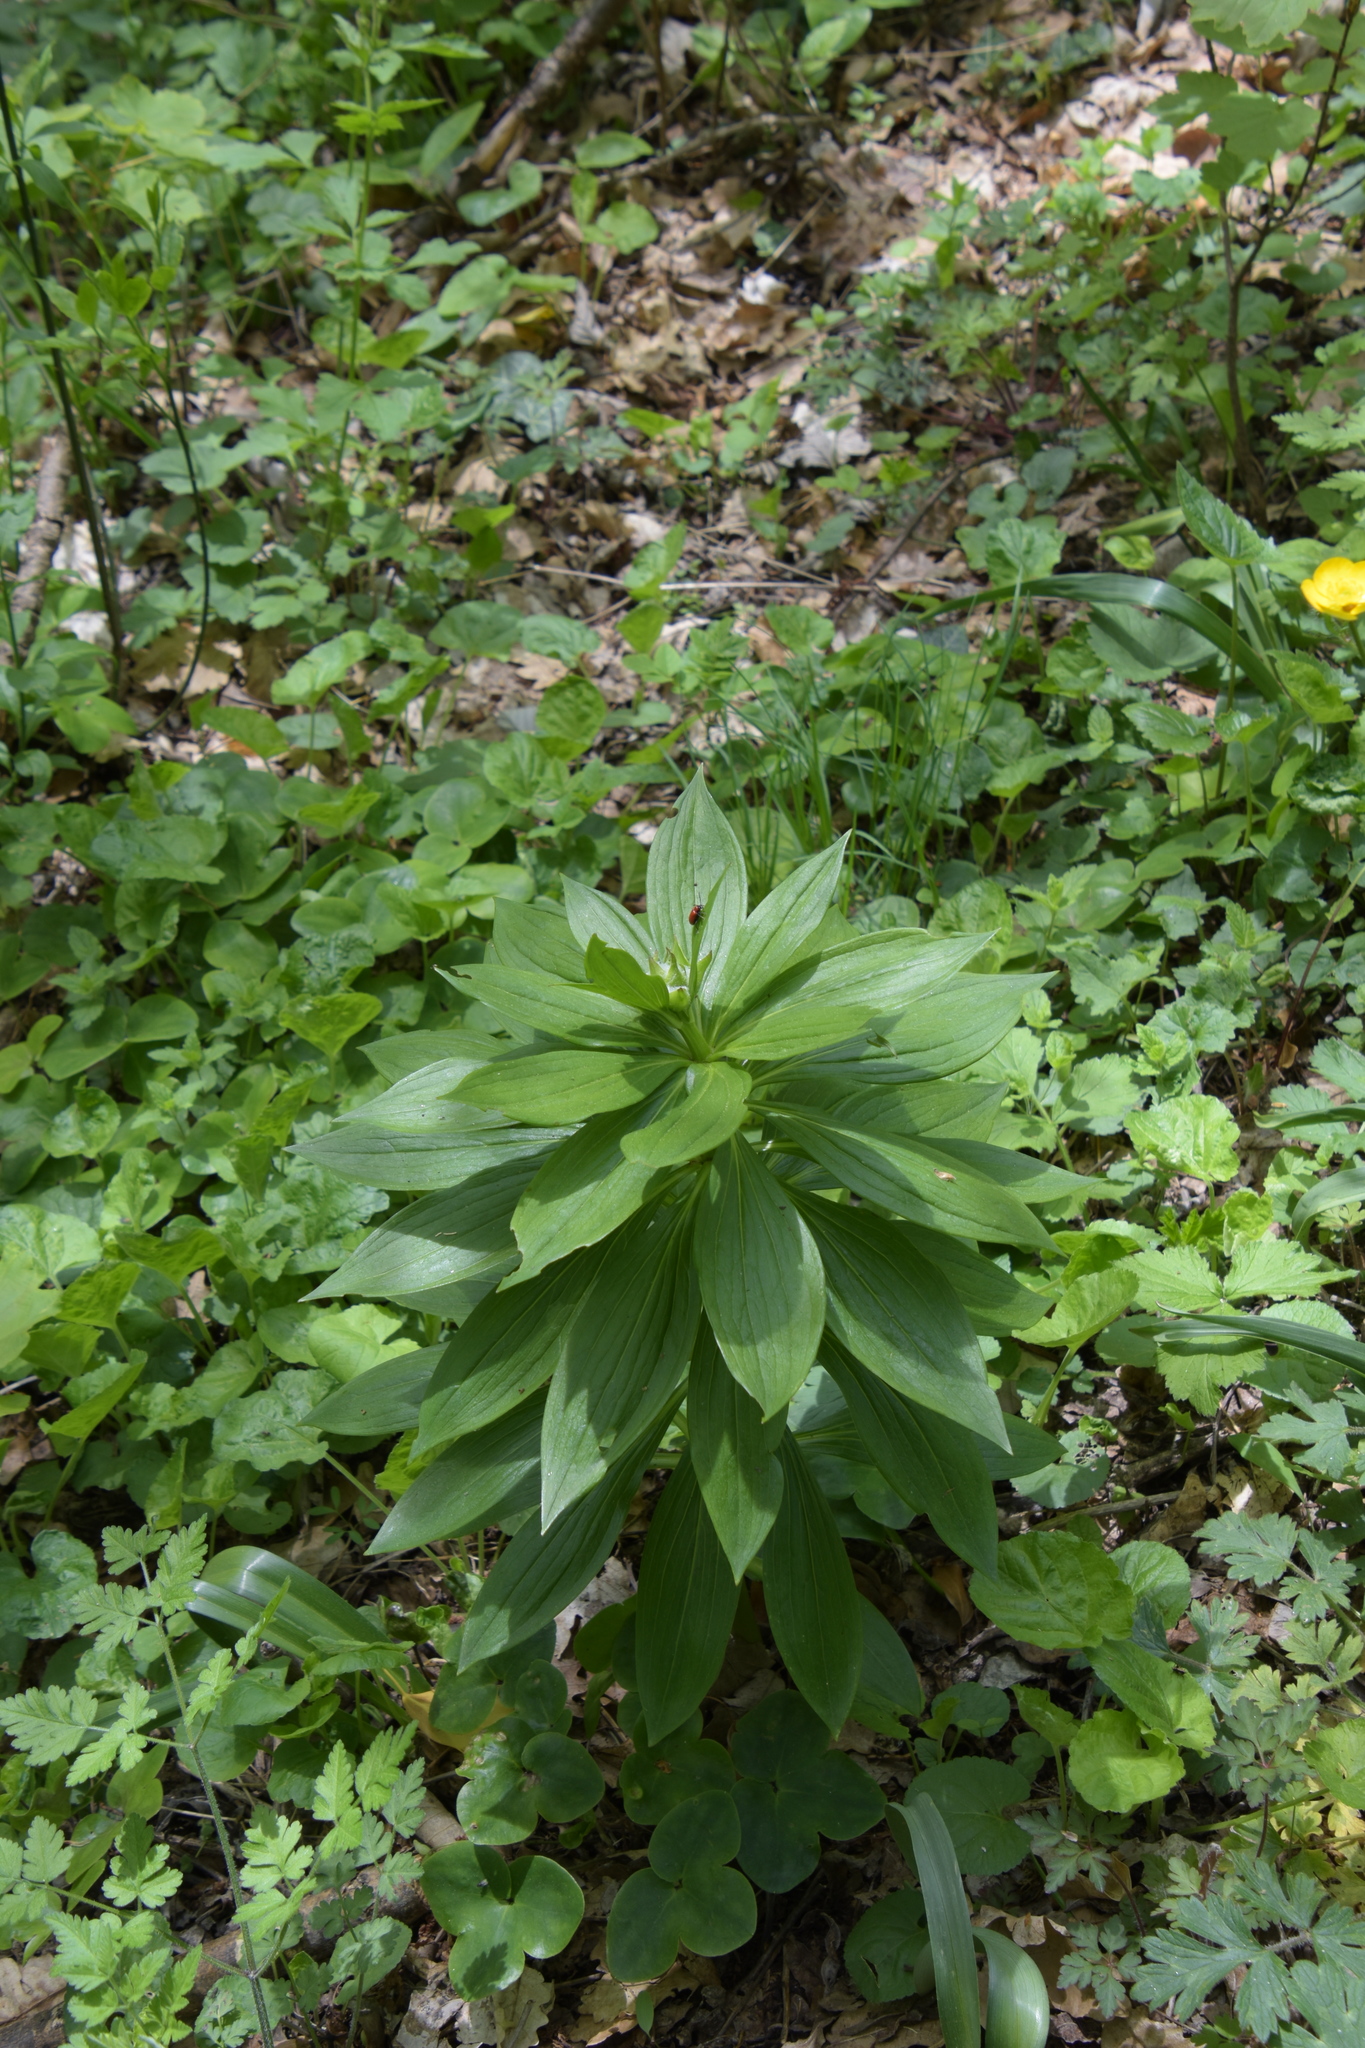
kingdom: Plantae
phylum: Tracheophyta
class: Liliopsida
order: Liliales
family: Liliaceae
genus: Lilium
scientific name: Lilium martagon
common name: Martagon lily
